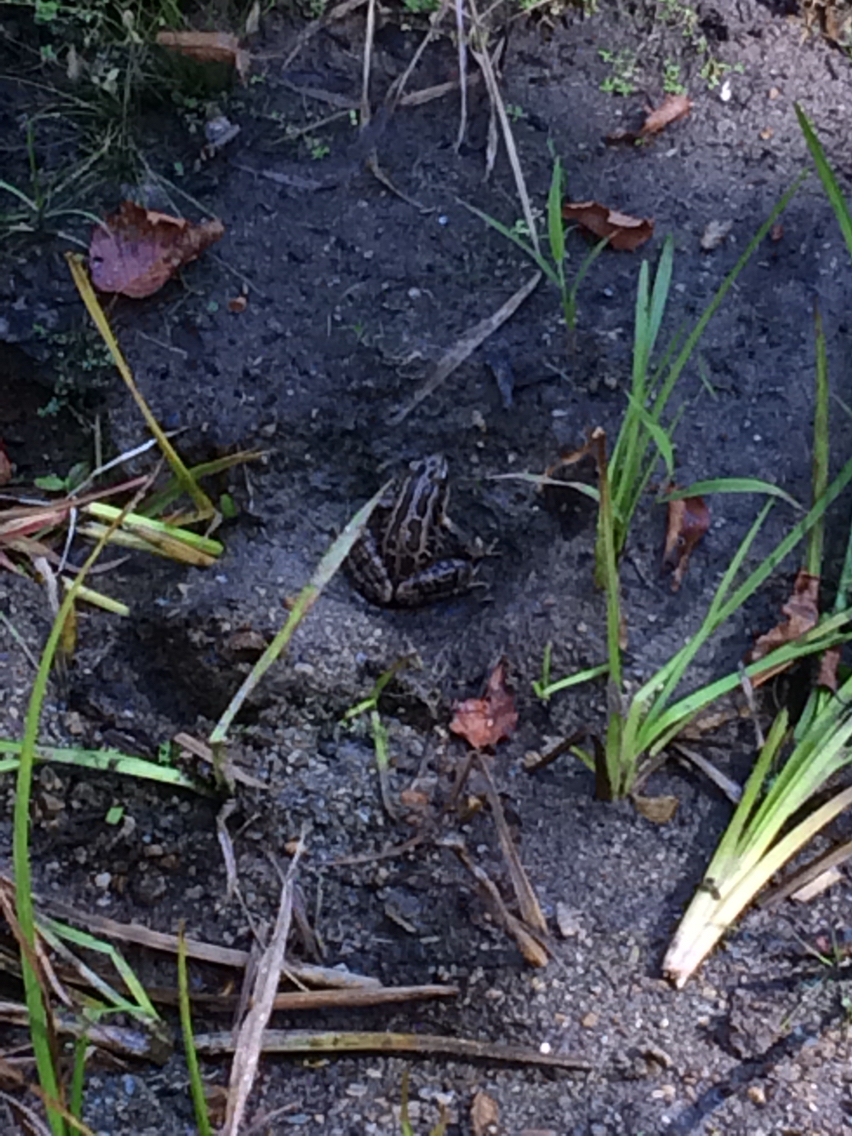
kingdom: Animalia
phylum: Chordata
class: Amphibia
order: Anura
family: Ranidae
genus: Lithobates
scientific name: Lithobates palustris
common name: Pickerel frog
